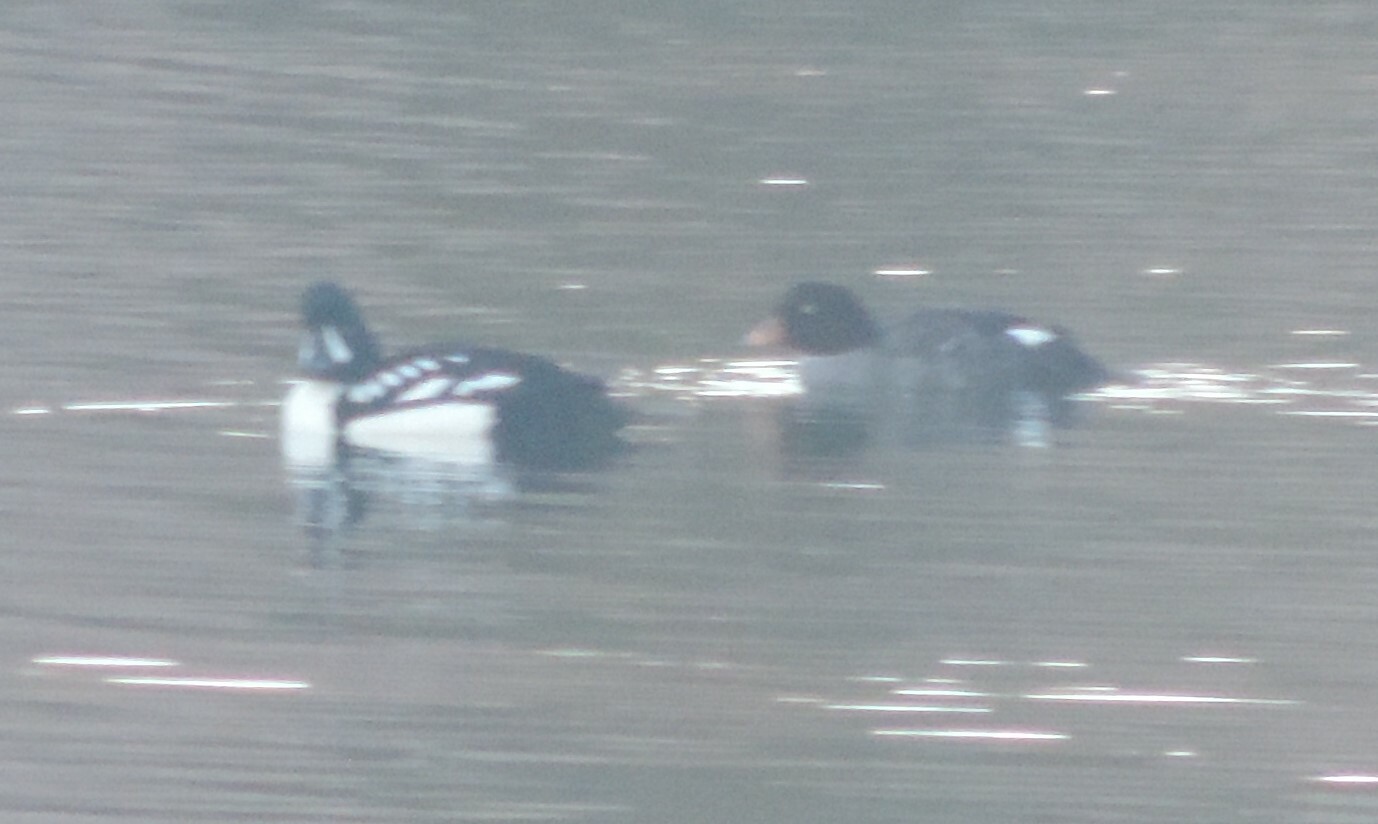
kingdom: Animalia
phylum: Chordata
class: Aves
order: Anseriformes
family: Anatidae
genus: Bucephala
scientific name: Bucephala islandica
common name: Barrow's goldeneye
